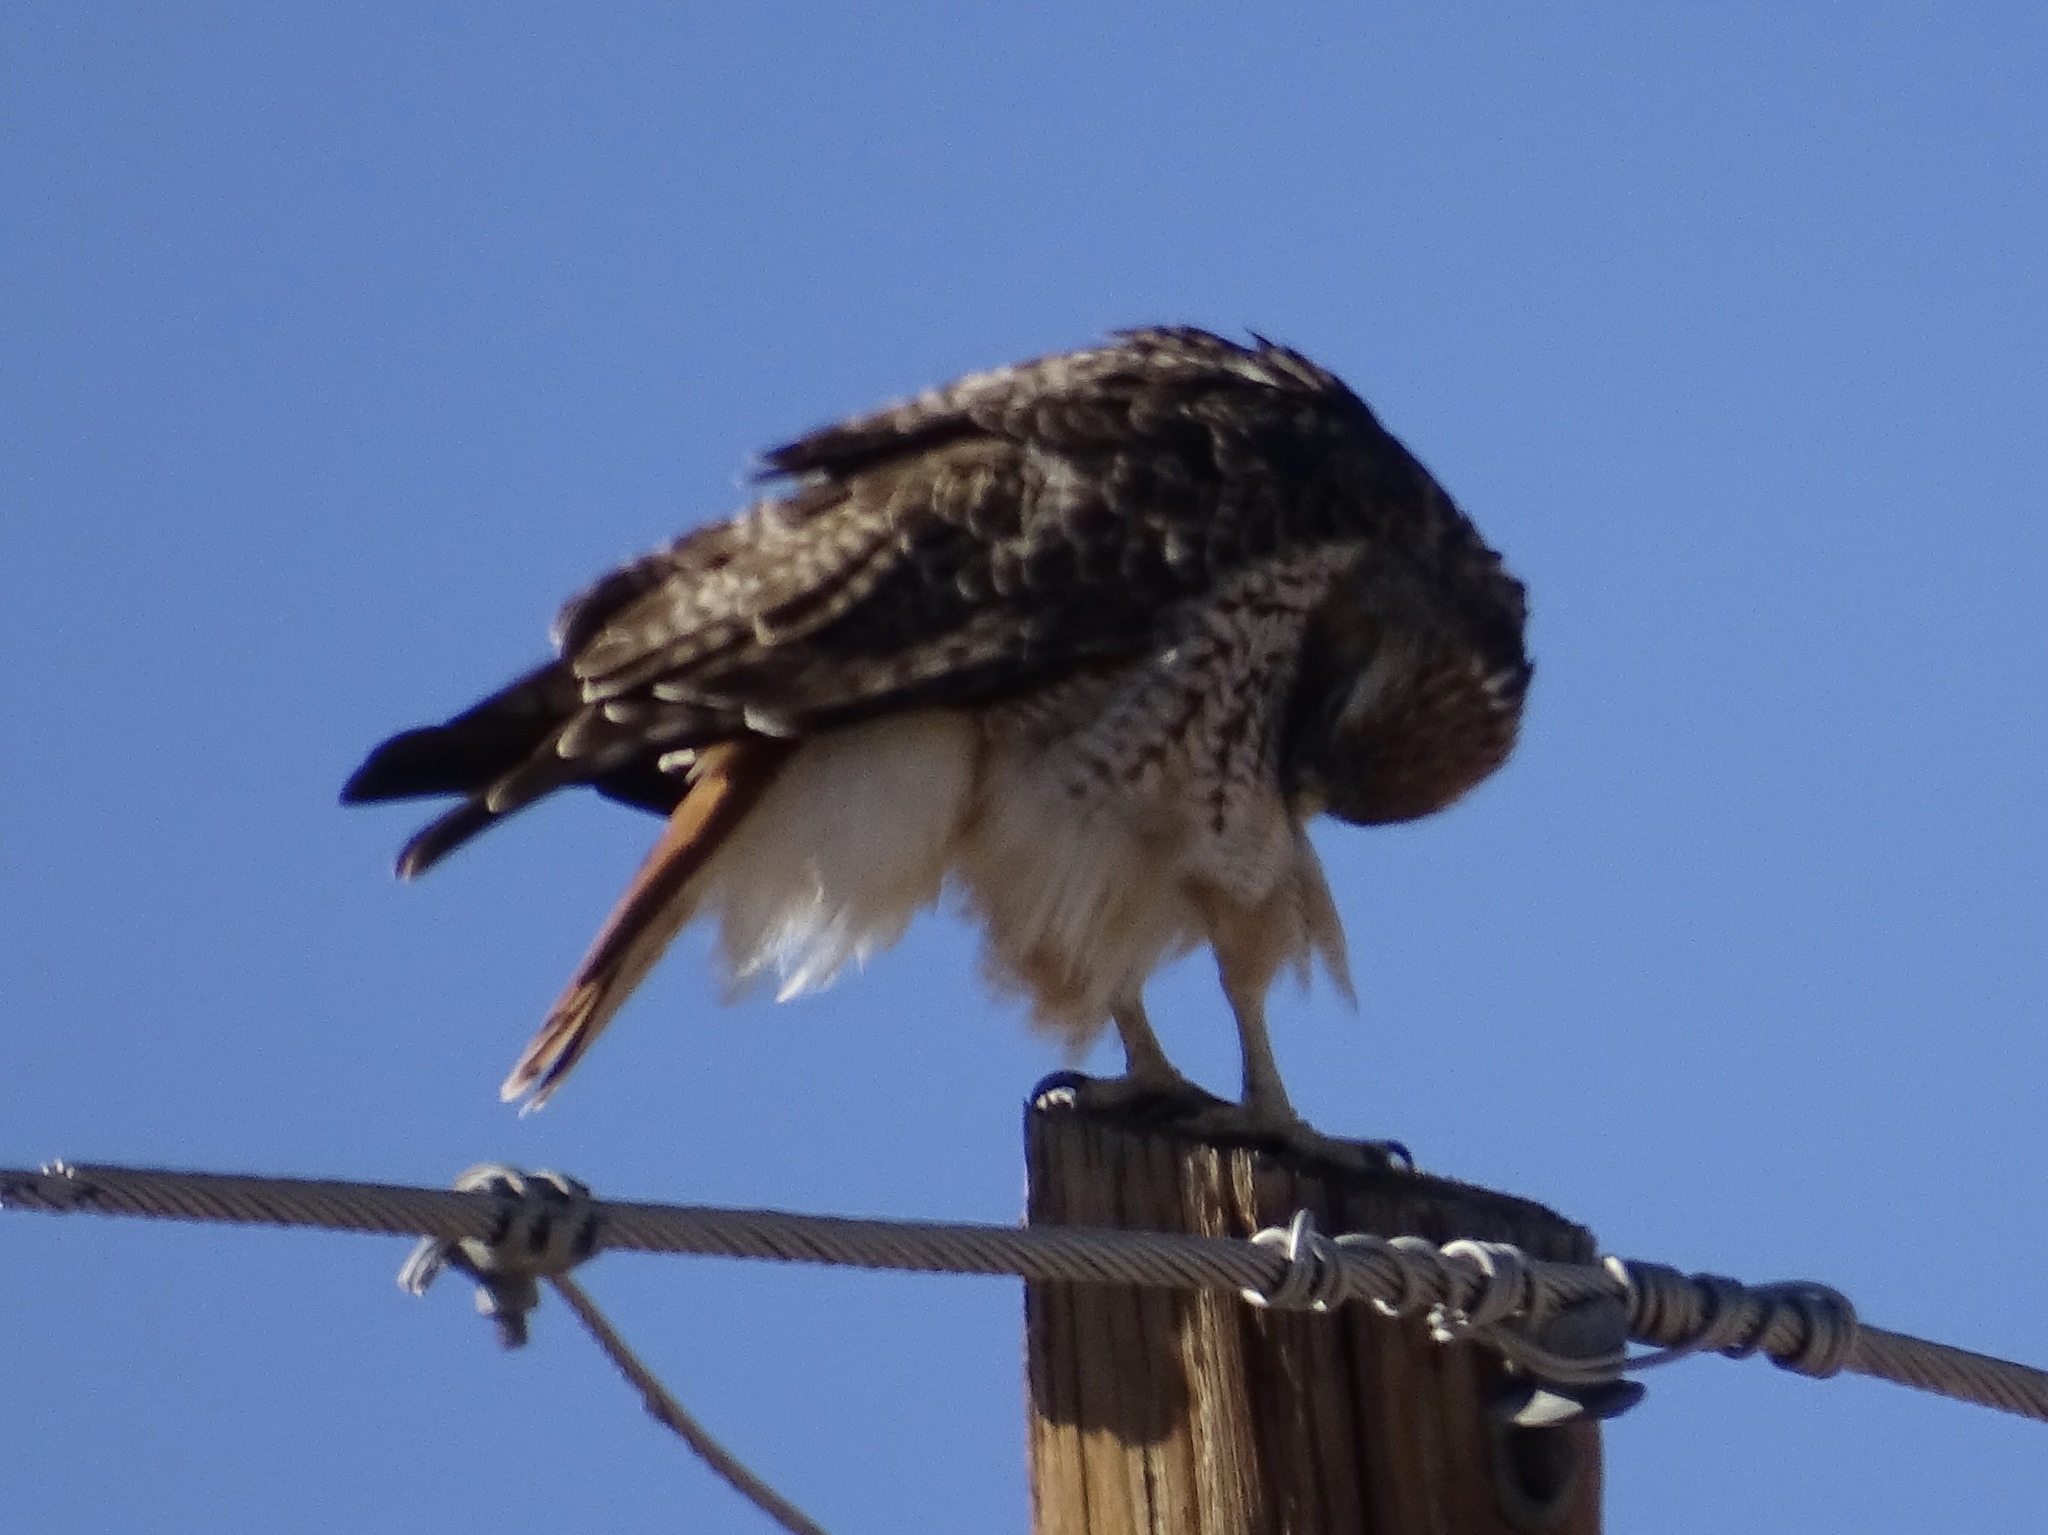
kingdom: Animalia
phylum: Chordata
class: Aves
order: Accipitriformes
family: Accipitridae
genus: Buteo
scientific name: Buteo jamaicensis
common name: Red-tailed hawk
